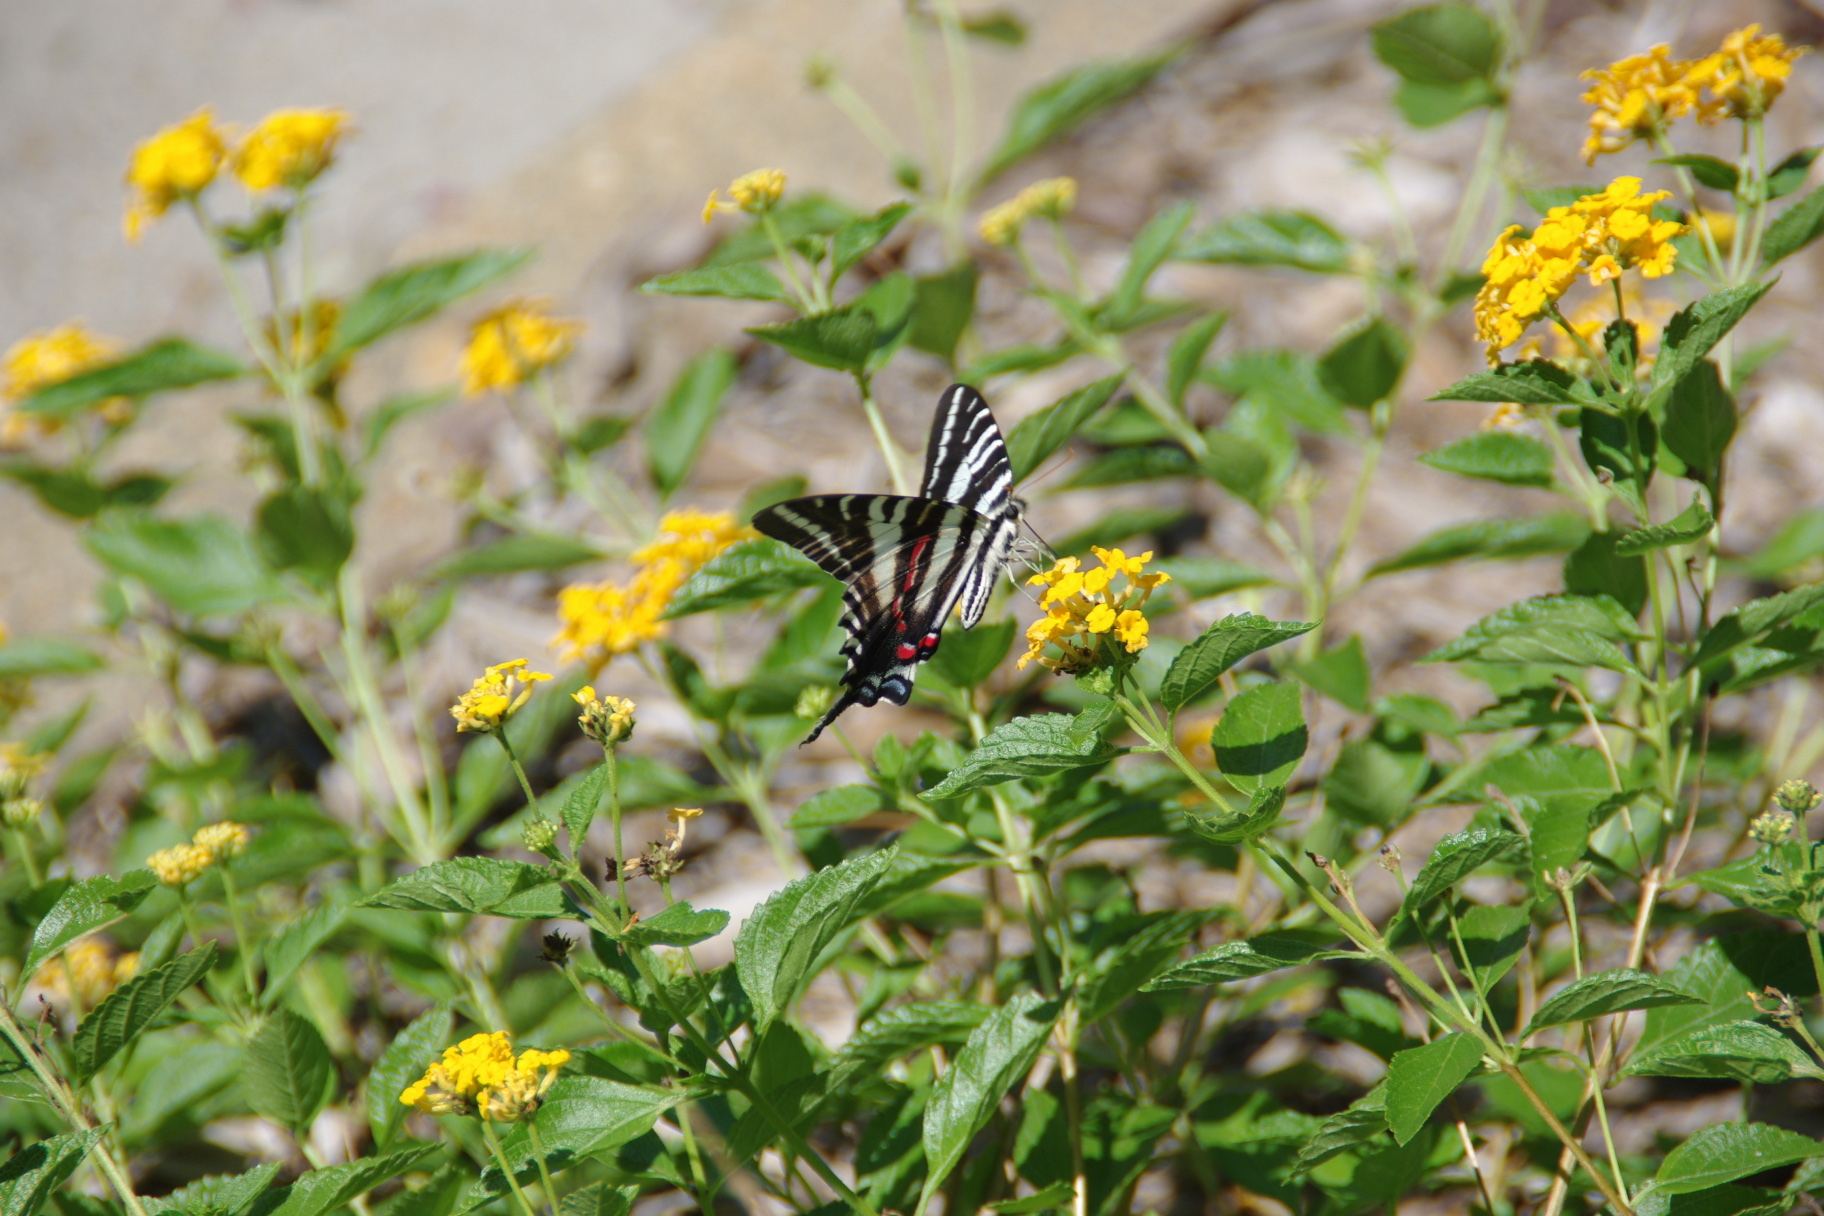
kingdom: Animalia
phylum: Arthropoda
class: Insecta
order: Lepidoptera
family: Papilionidae
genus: Protographium
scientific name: Protographium marcellus
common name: Zebra swallowtail
